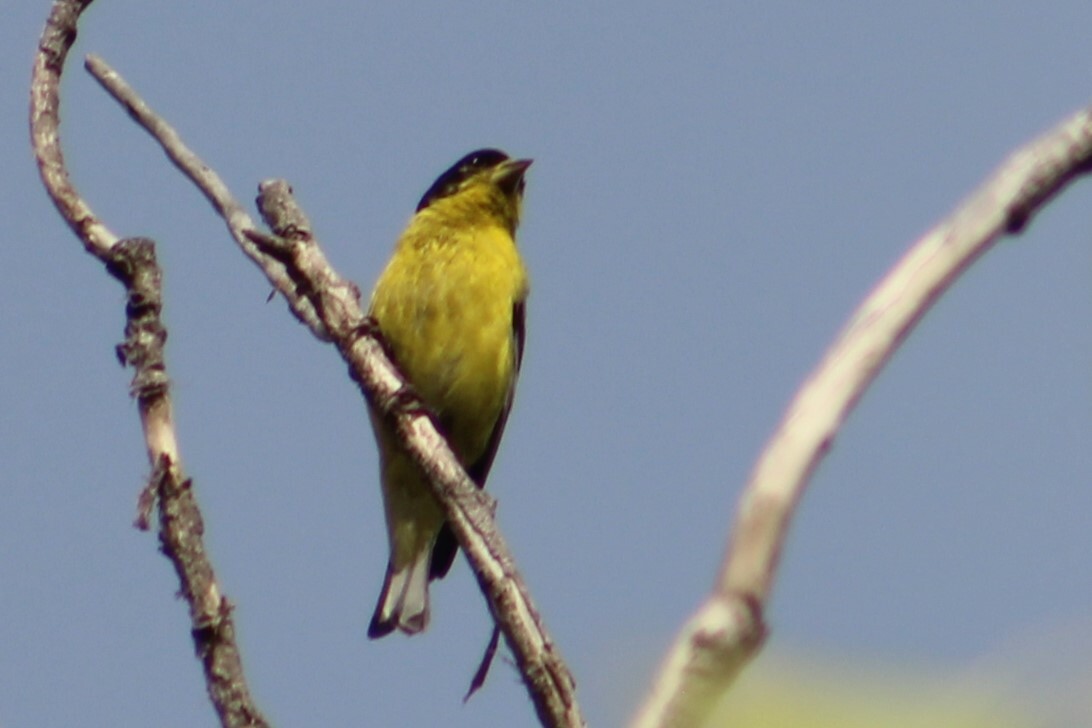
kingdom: Animalia
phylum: Chordata
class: Aves
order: Passeriformes
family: Fringillidae
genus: Spinus
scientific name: Spinus psaltria
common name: Lesser goldfinch
